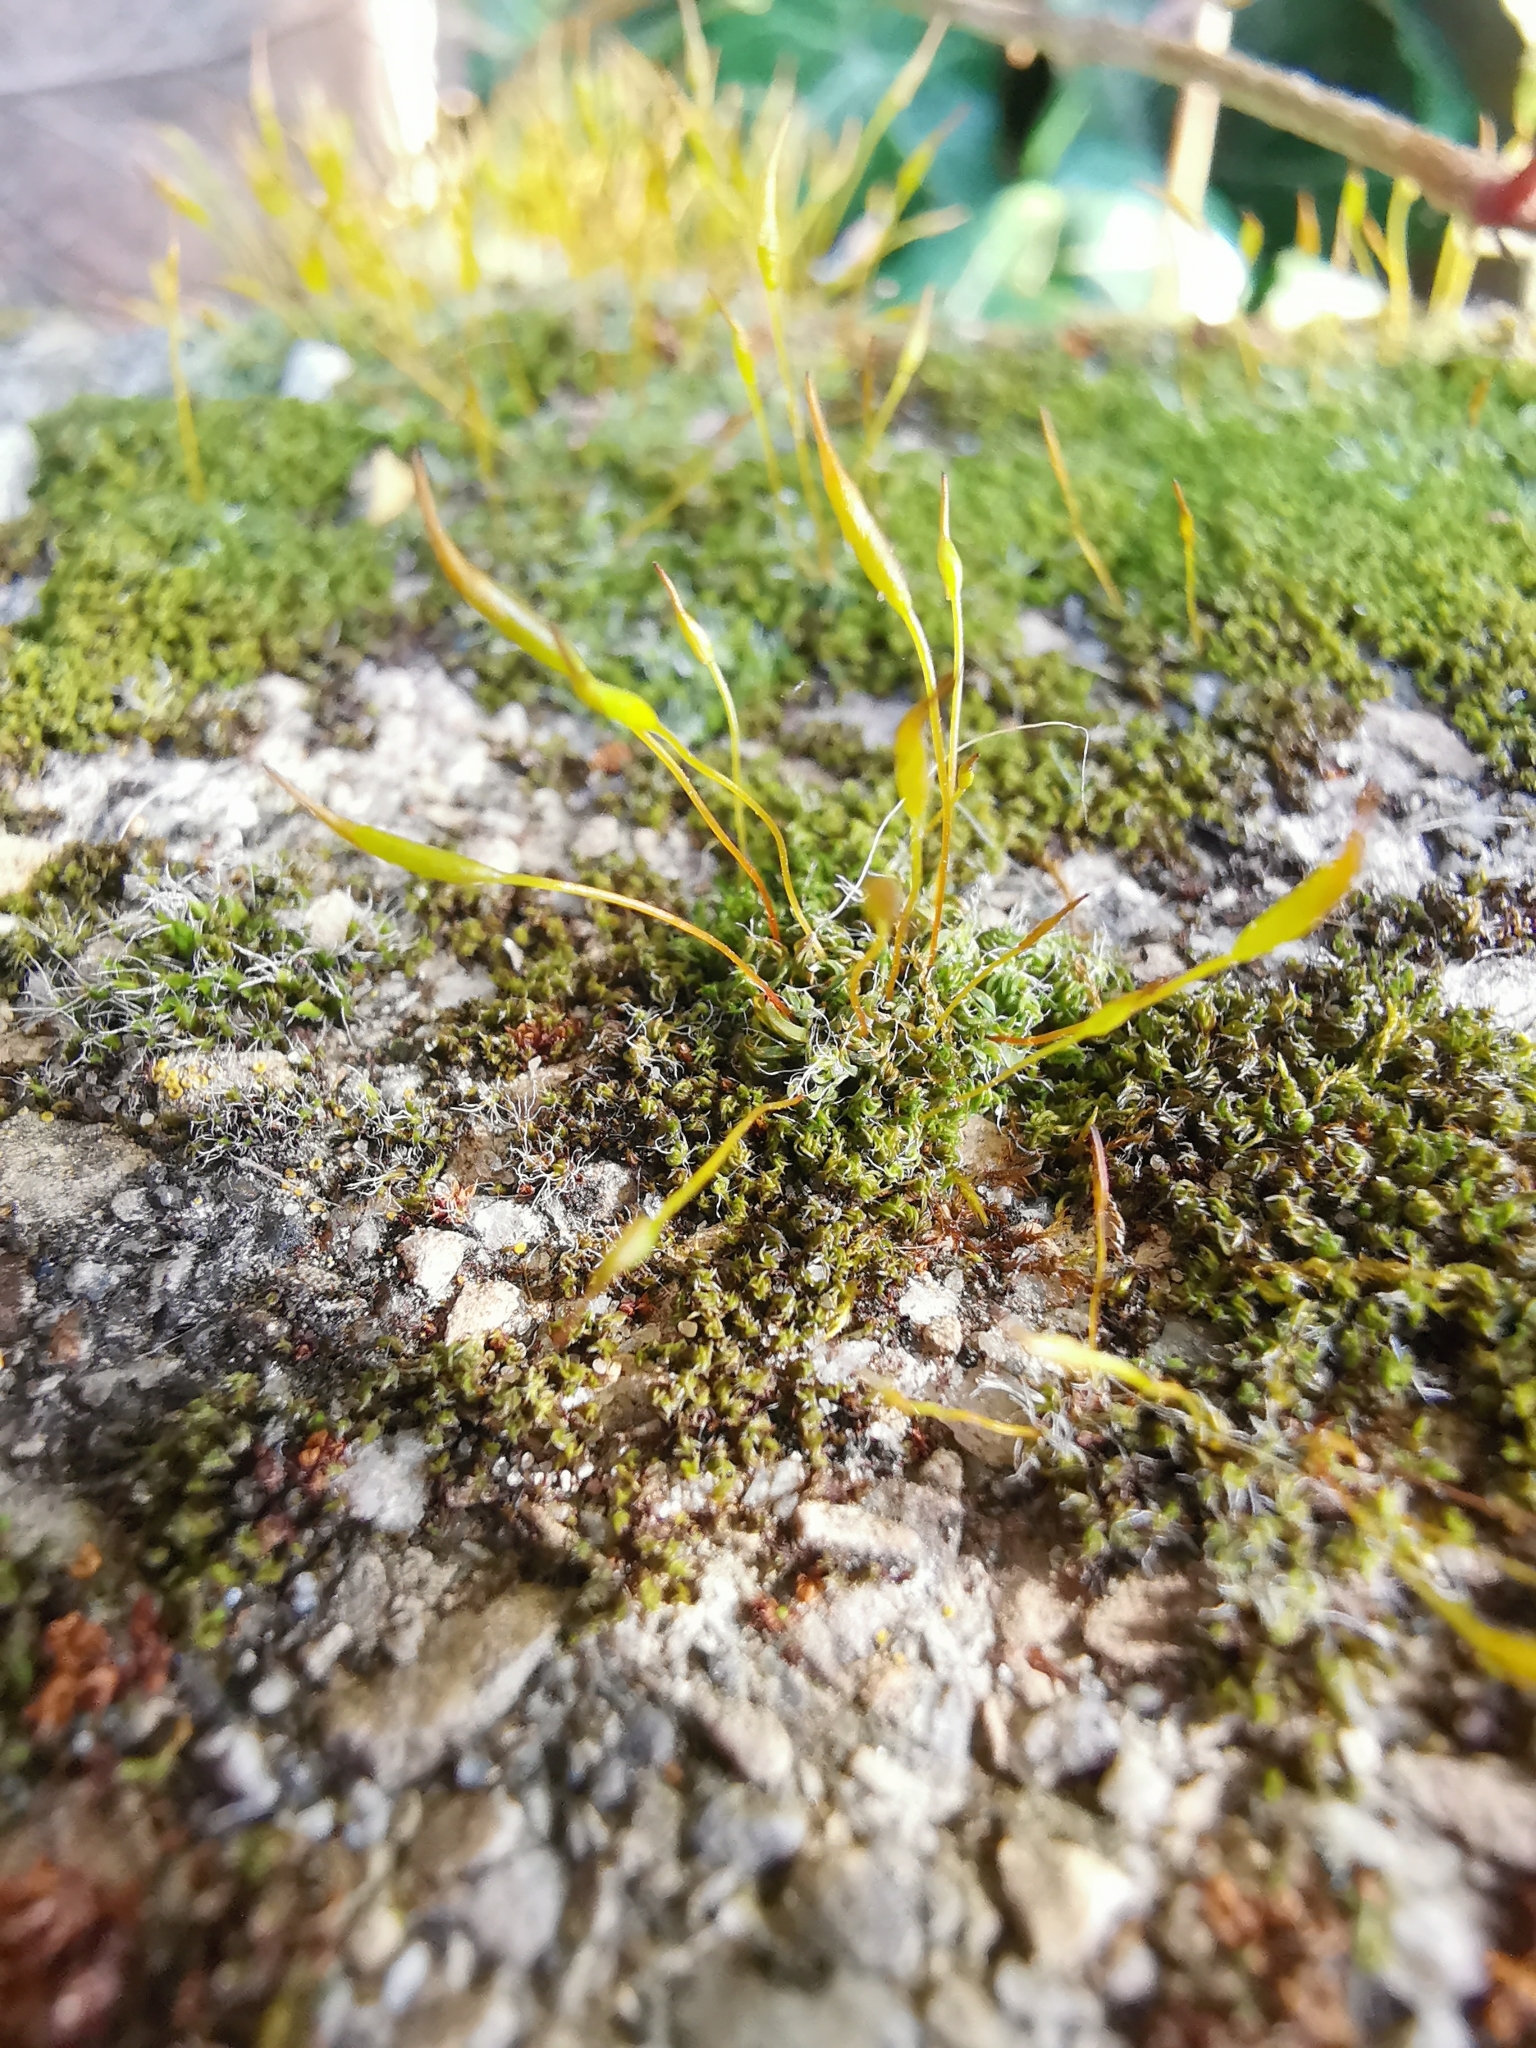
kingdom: Plantae
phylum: Bryophyta
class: Bryopsida
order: Pottiales
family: Pottiaceae
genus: Tortula
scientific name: Tortula muralis
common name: Wall screw-moss
